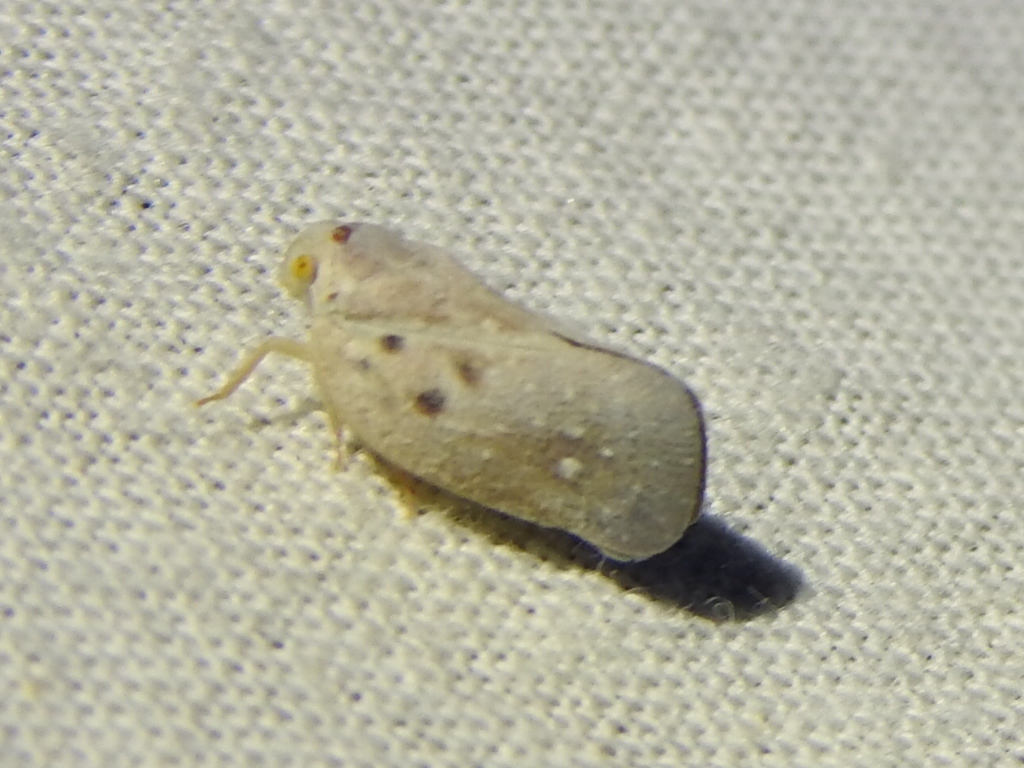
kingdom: Animalia
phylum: Arthropoda
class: Insecta
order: Hemiptera
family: Flatidae
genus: Metcalfa
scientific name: Metcalfa pruinosa
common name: Citrus flatid planthopper
